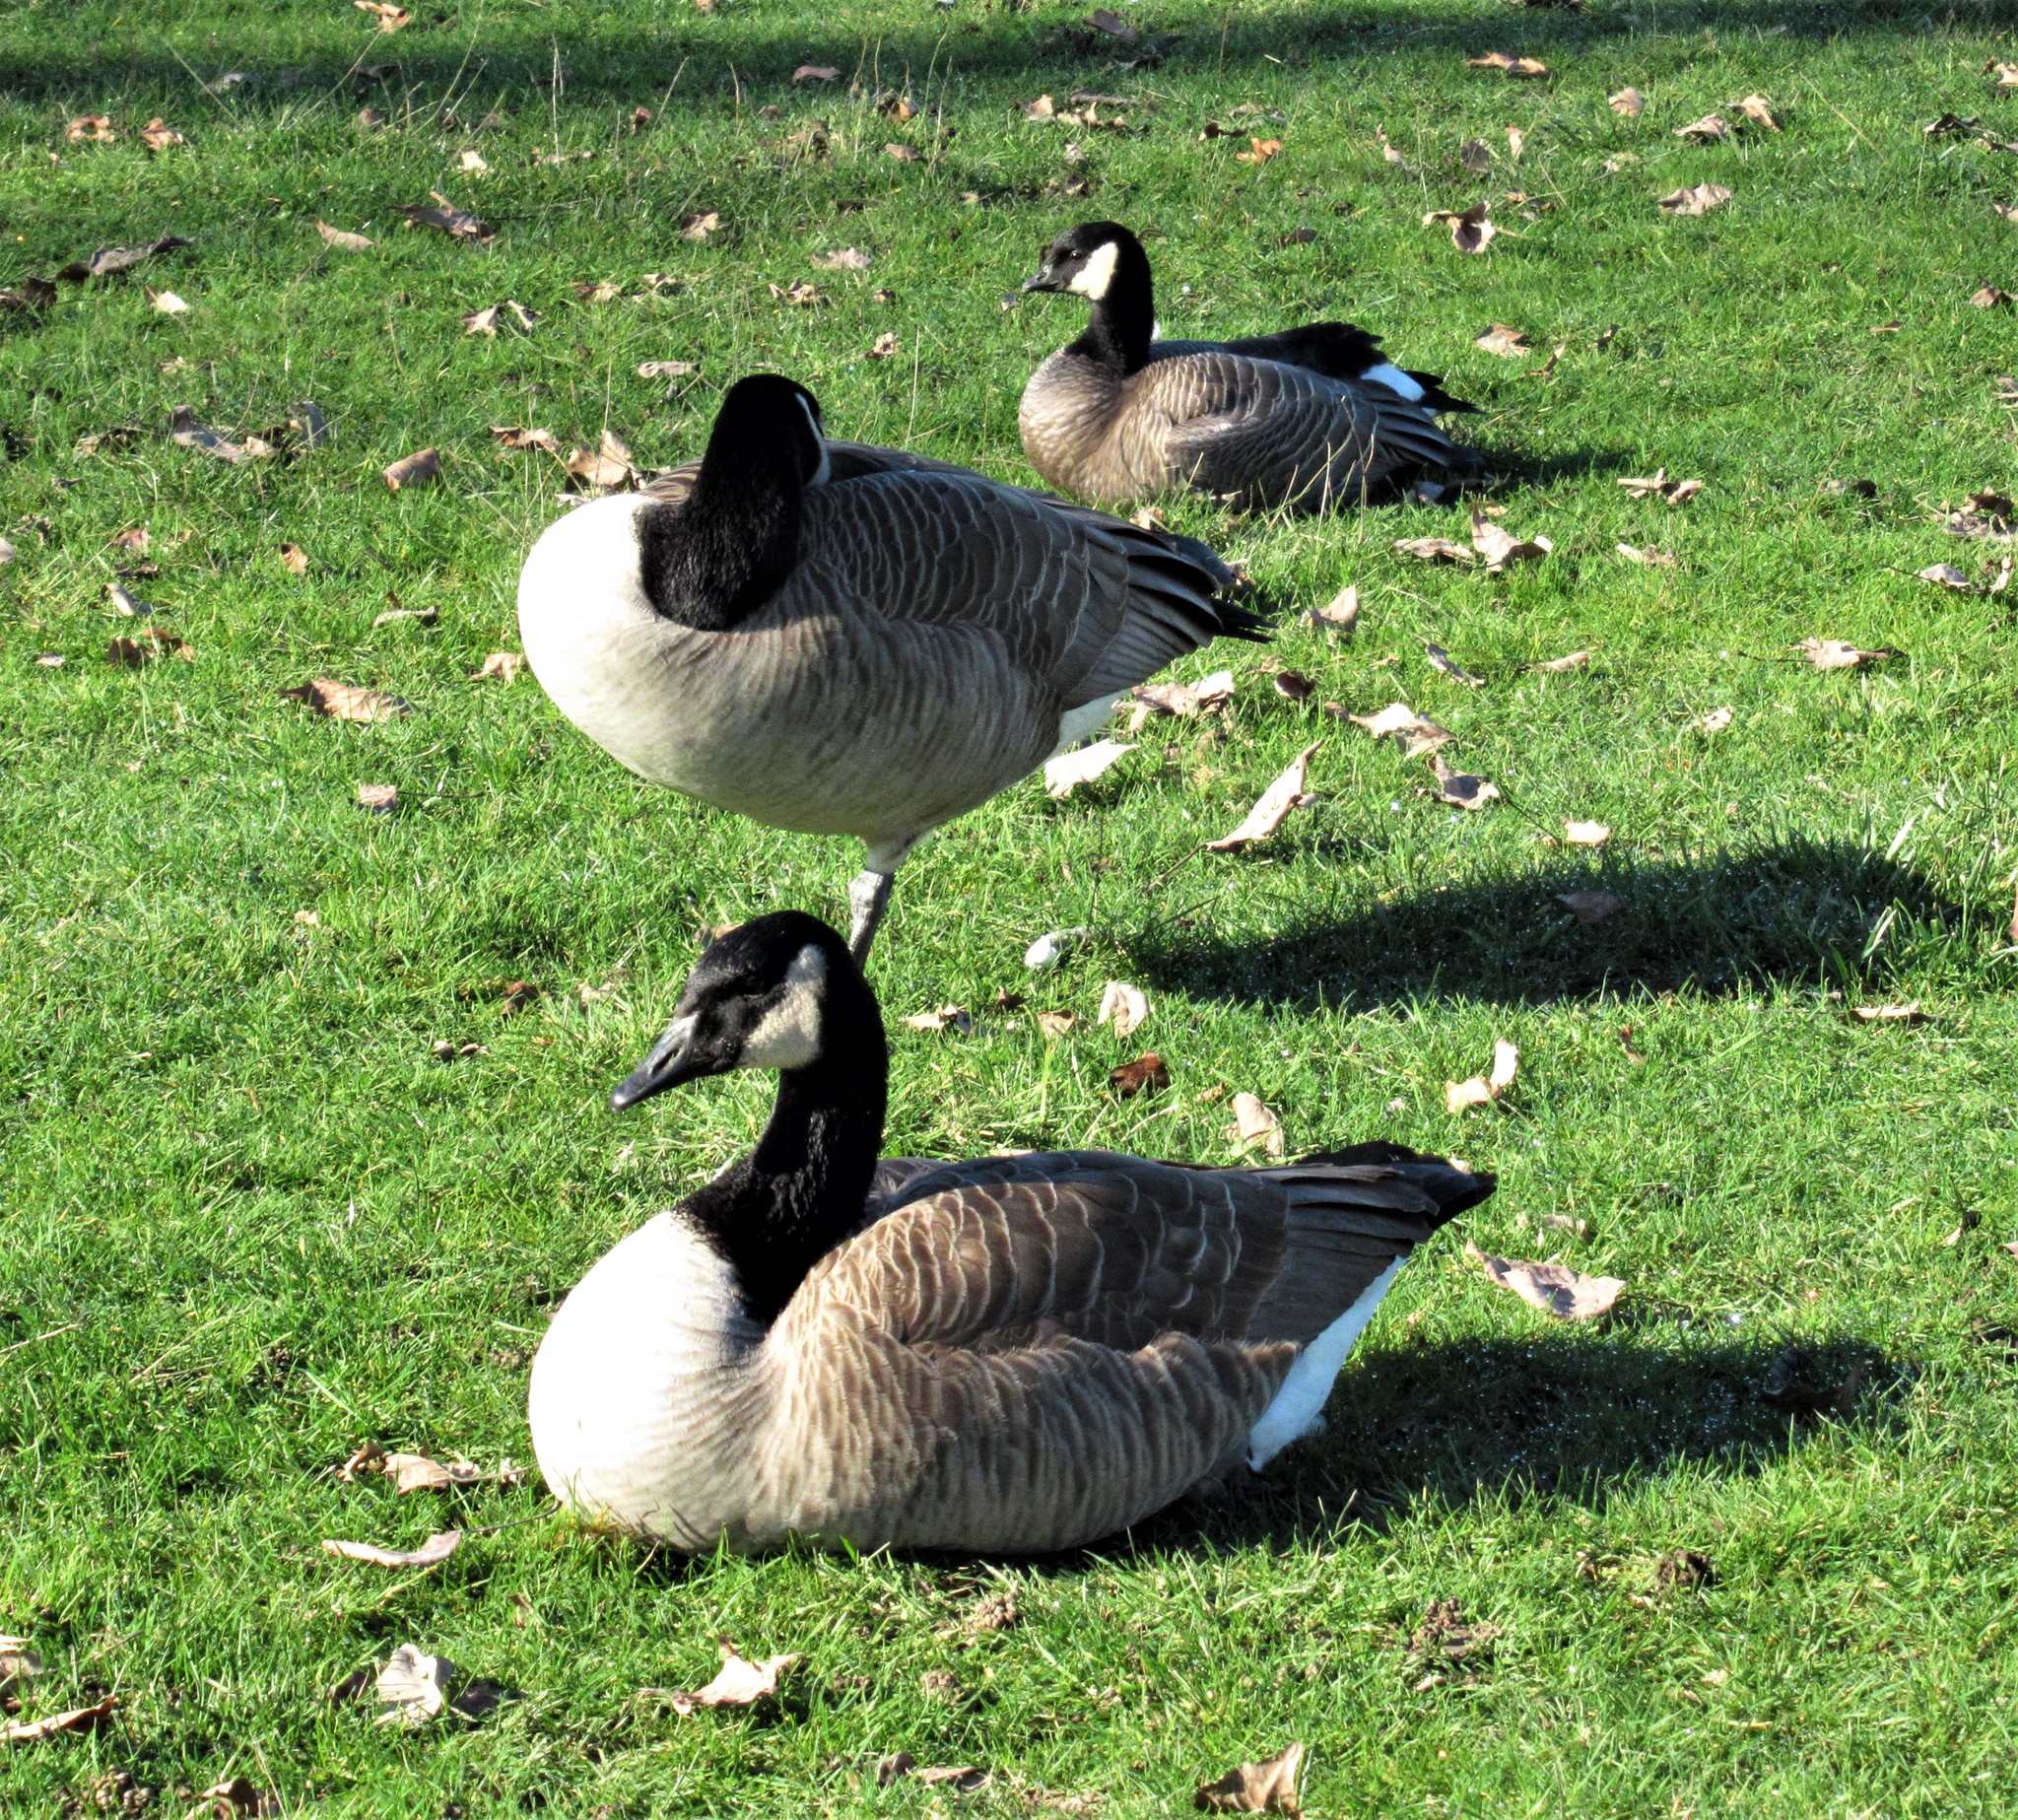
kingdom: Animalia
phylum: Chordata
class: Aves
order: Anseriformes
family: Anatidae
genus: Branta
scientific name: Branta canadensis
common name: Canada goose
